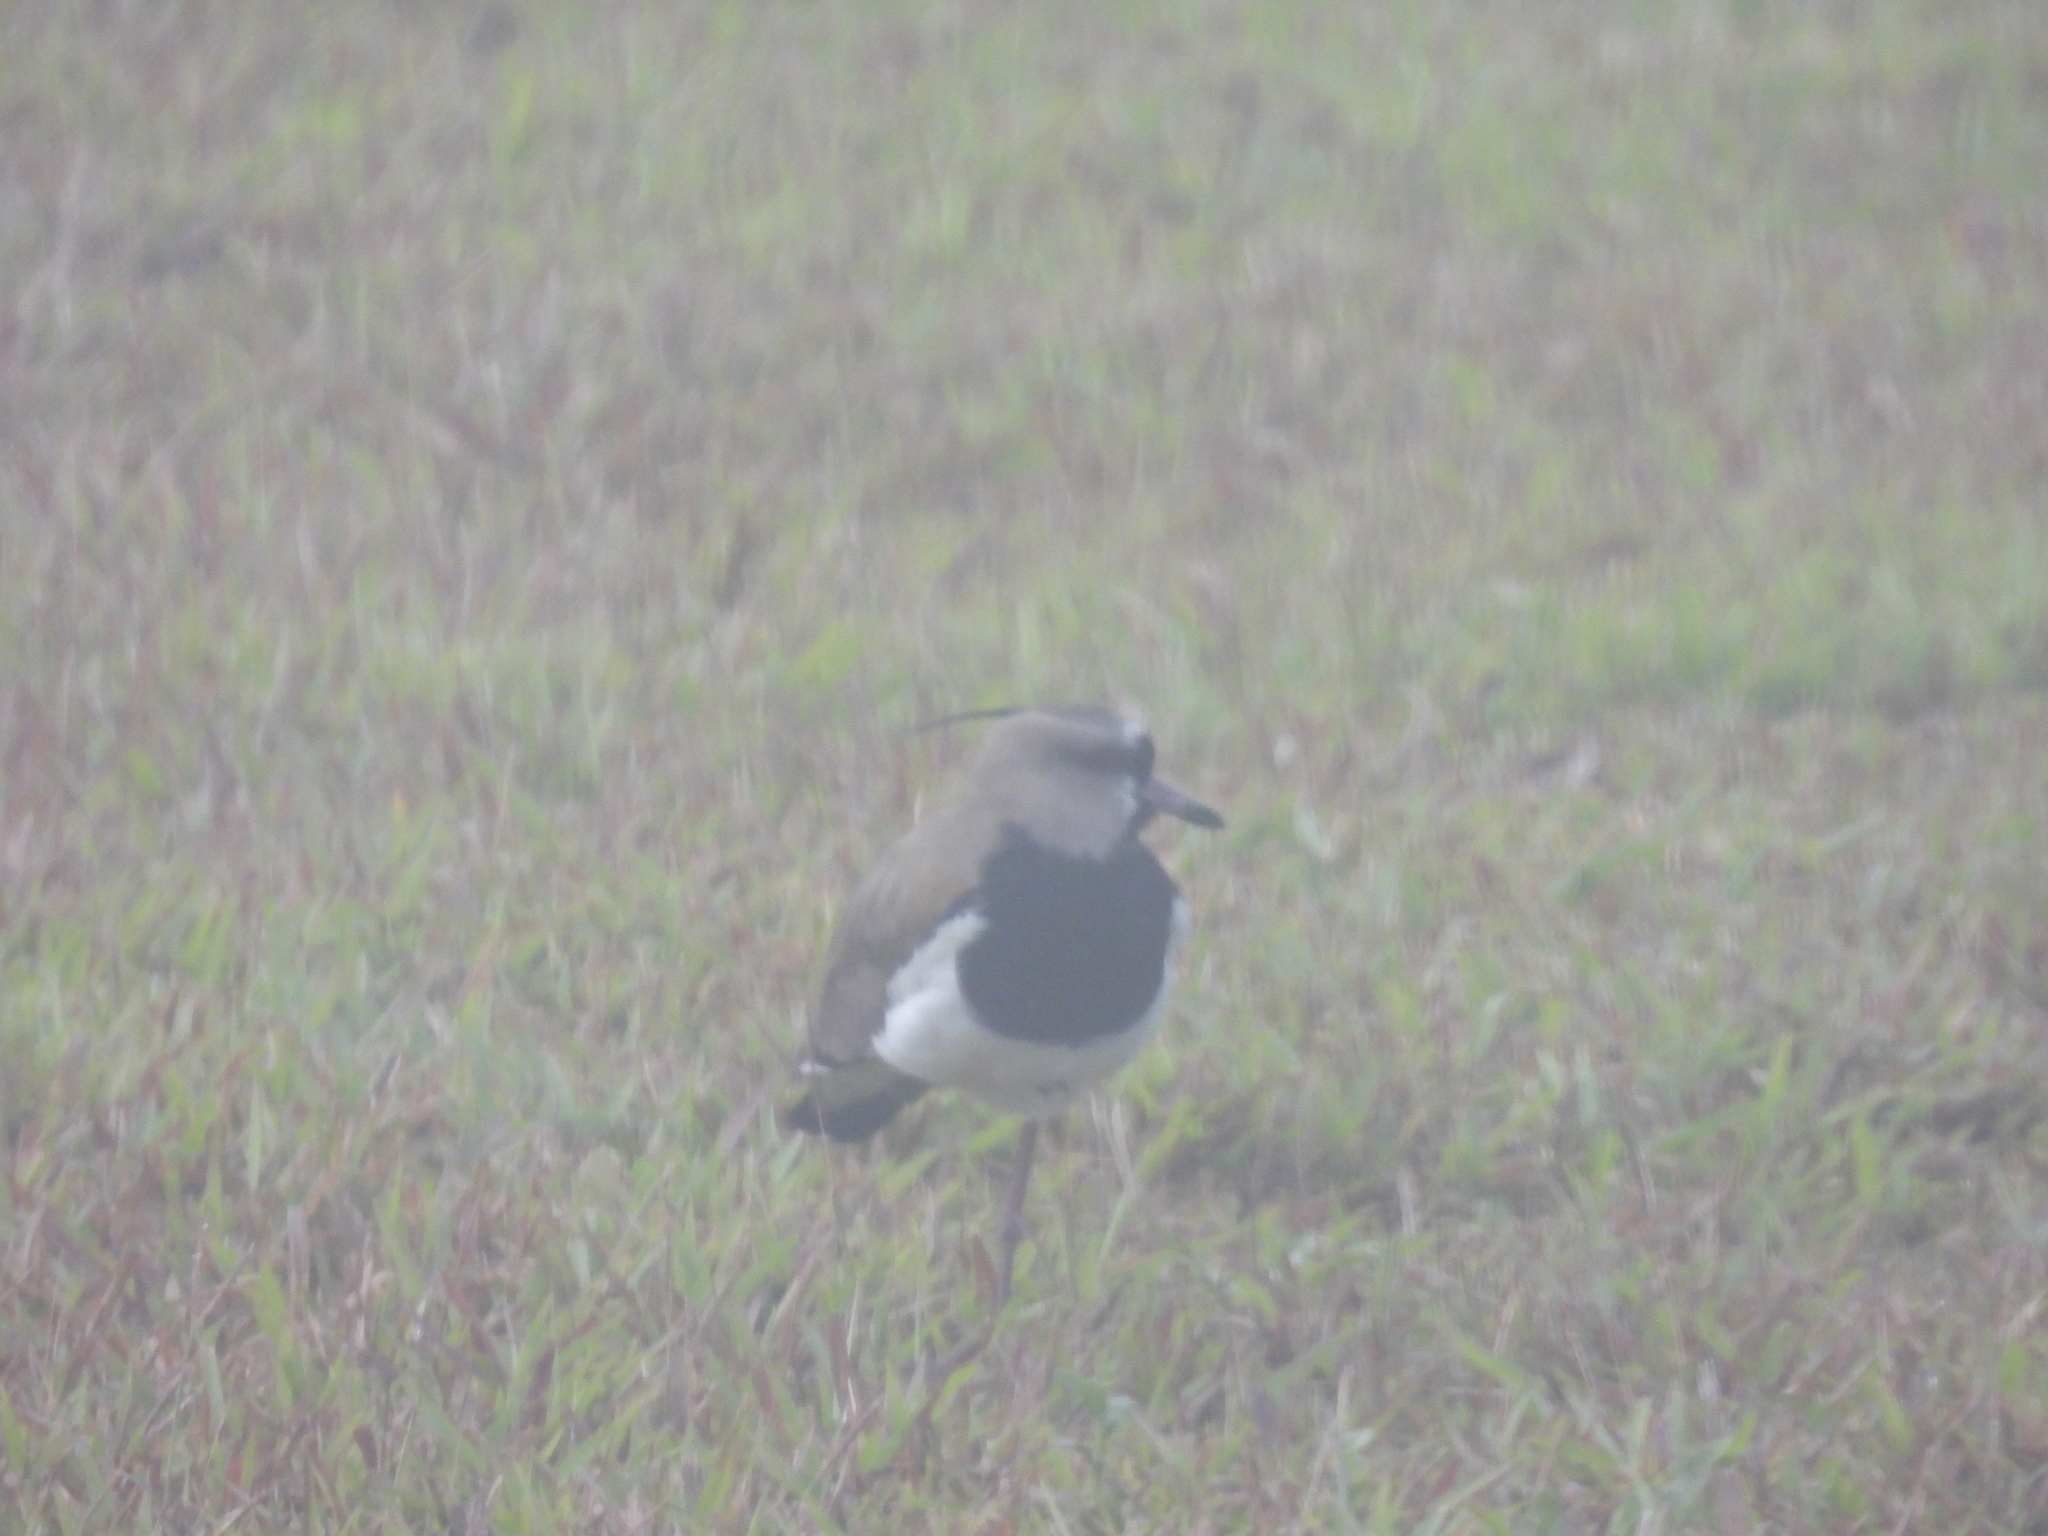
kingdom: Animalia
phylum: Chordata
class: Aves
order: Charadriiformes
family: Charadriidae
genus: Vanellus
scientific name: Vanellus chilensis
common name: Southern lapwing
